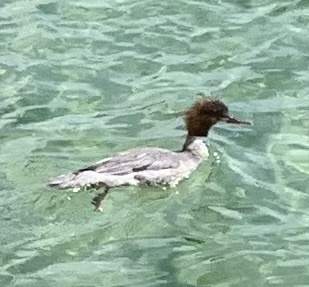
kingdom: Animalia
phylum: Chordata
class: Aves
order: Anseriformes
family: Anatidae
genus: Mergus
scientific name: Mergus merganser
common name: Common merganser
